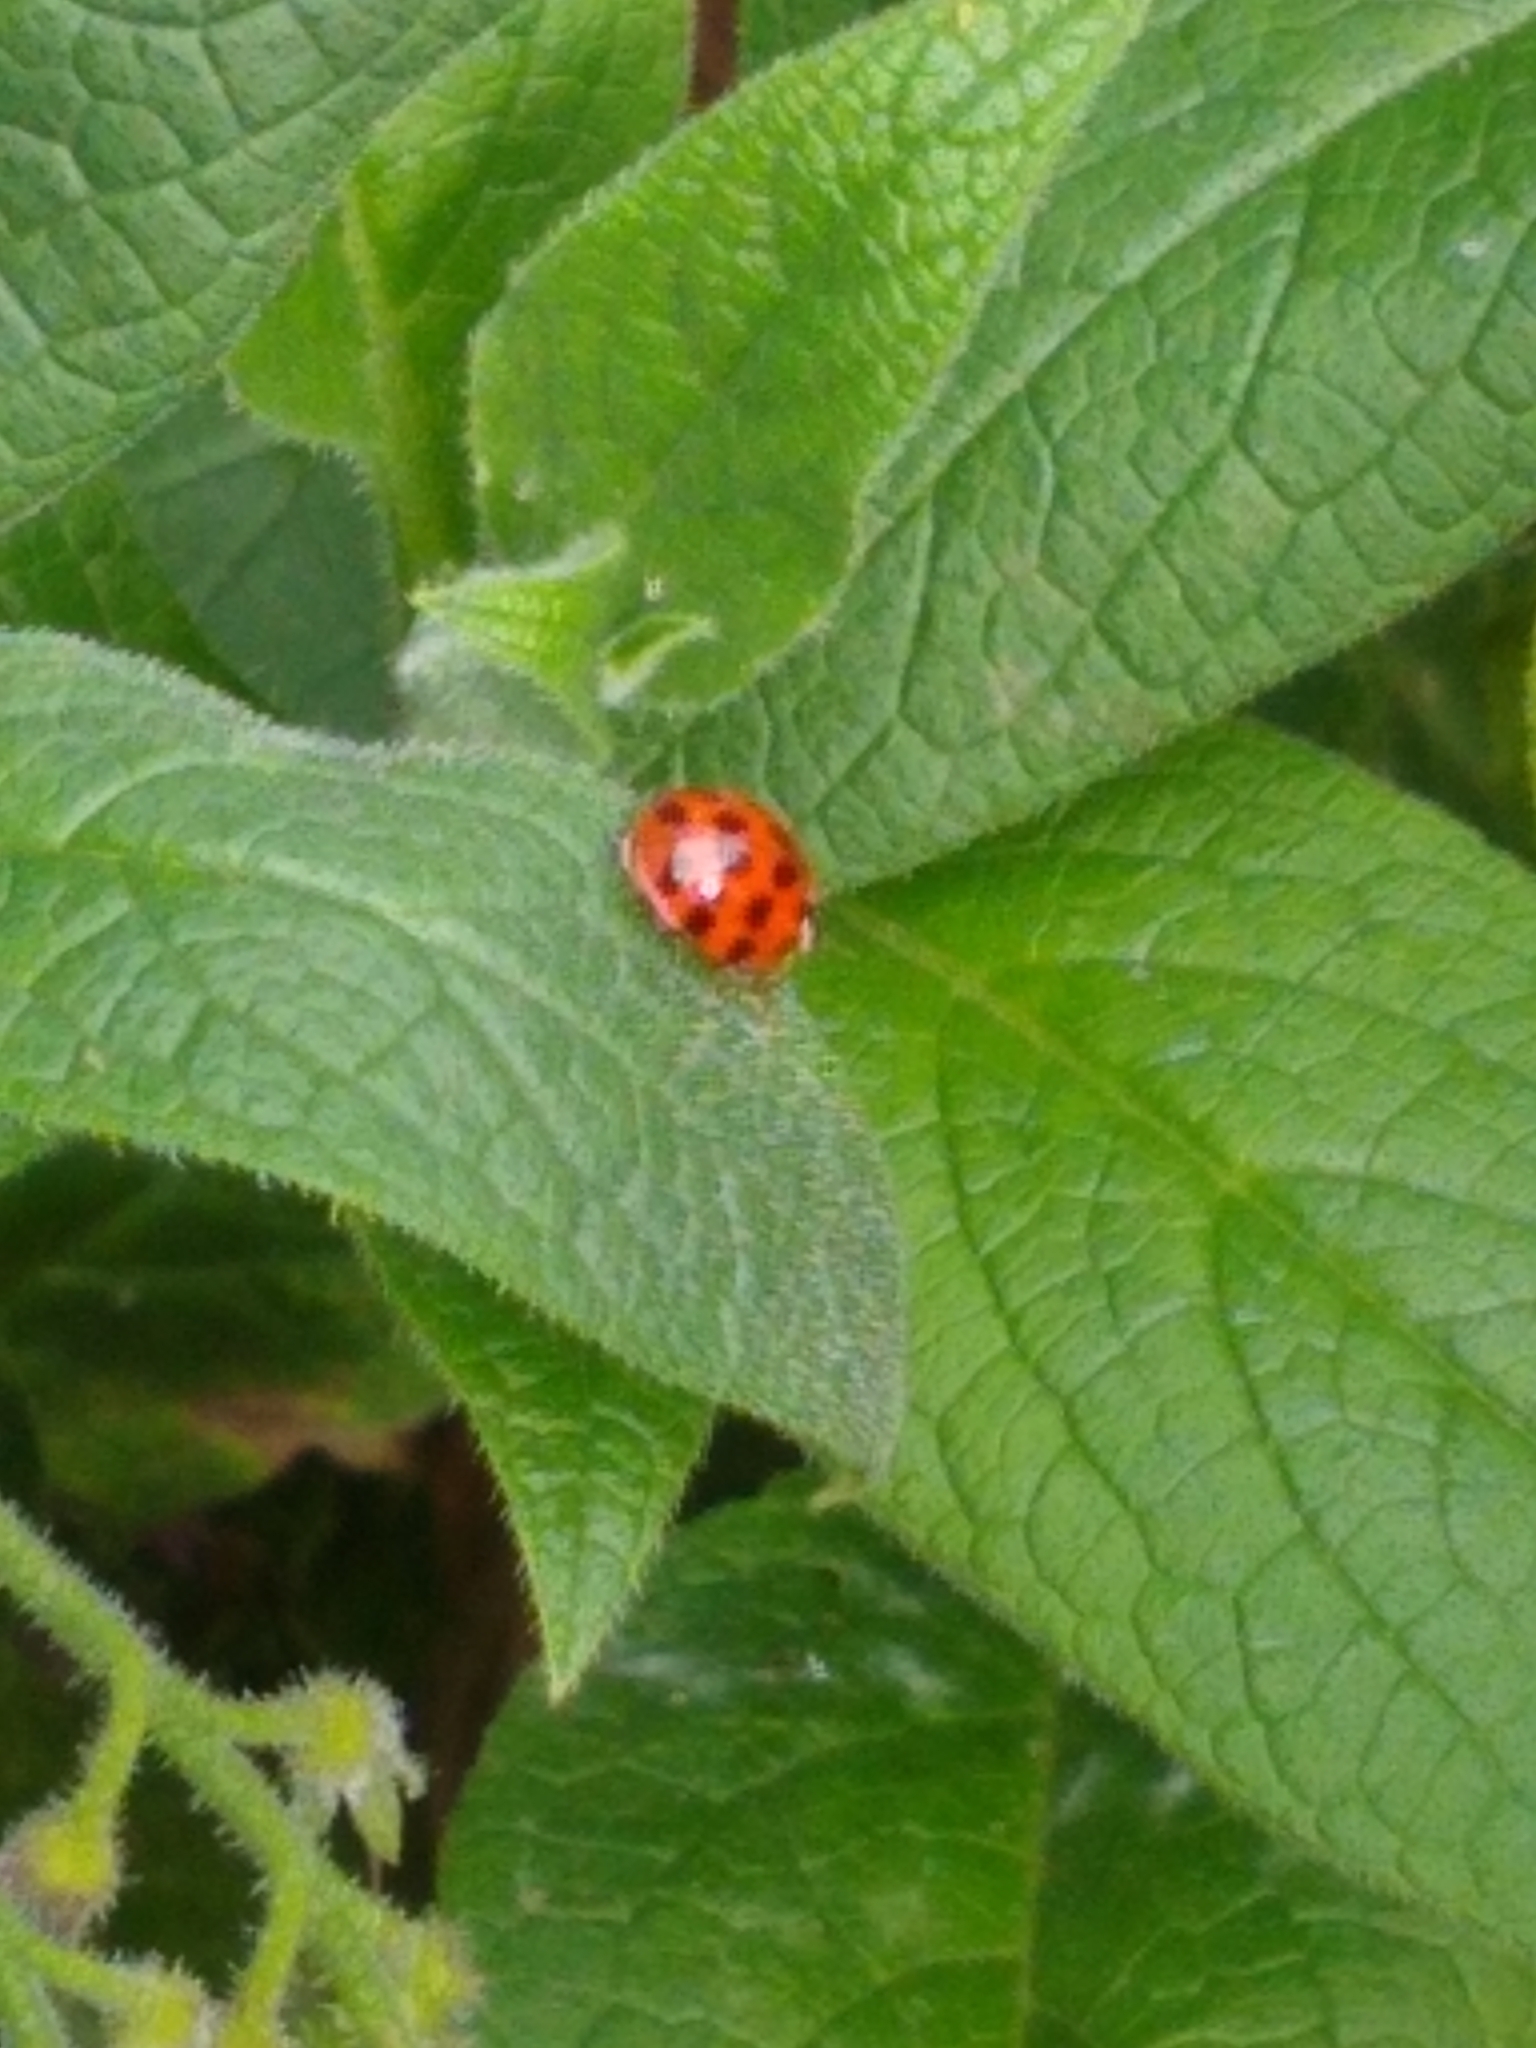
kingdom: Animalia
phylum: Arthropoda
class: Insecta
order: Coleoptera
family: Coccinellidae
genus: Harmonia
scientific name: Harmonia axyridis
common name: Harlequin ladybird
